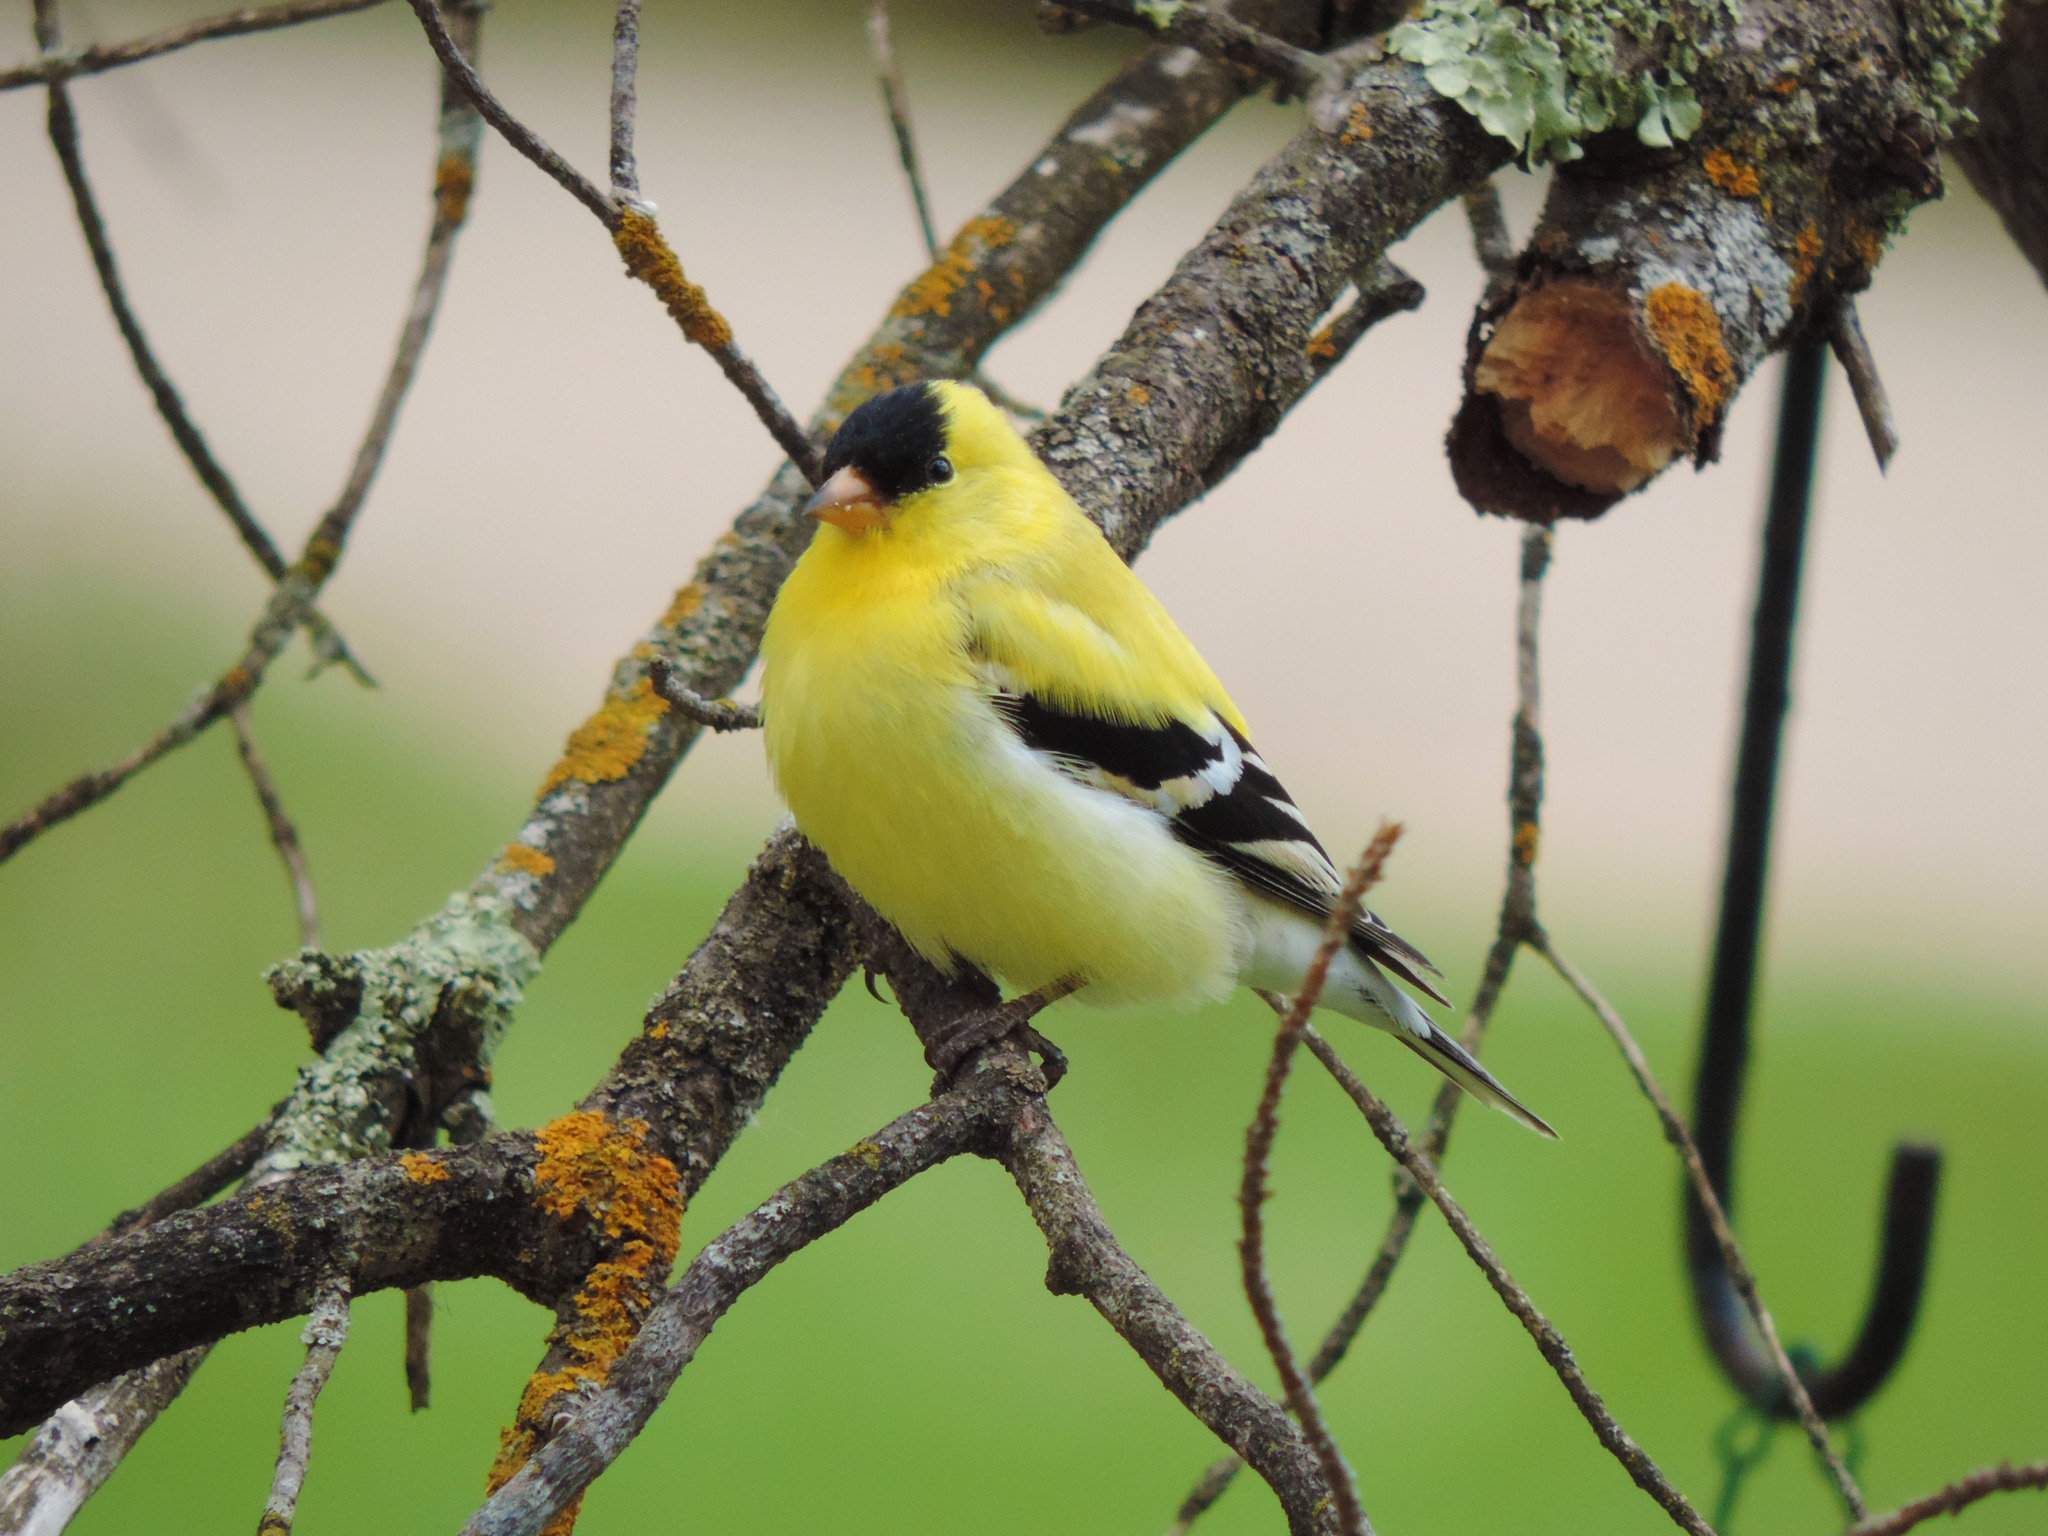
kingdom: Animalia
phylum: Chordata
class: Aves
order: Passeriformes
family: Fringillidae
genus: Spinus
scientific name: Spinus tristis
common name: American goldfinch
